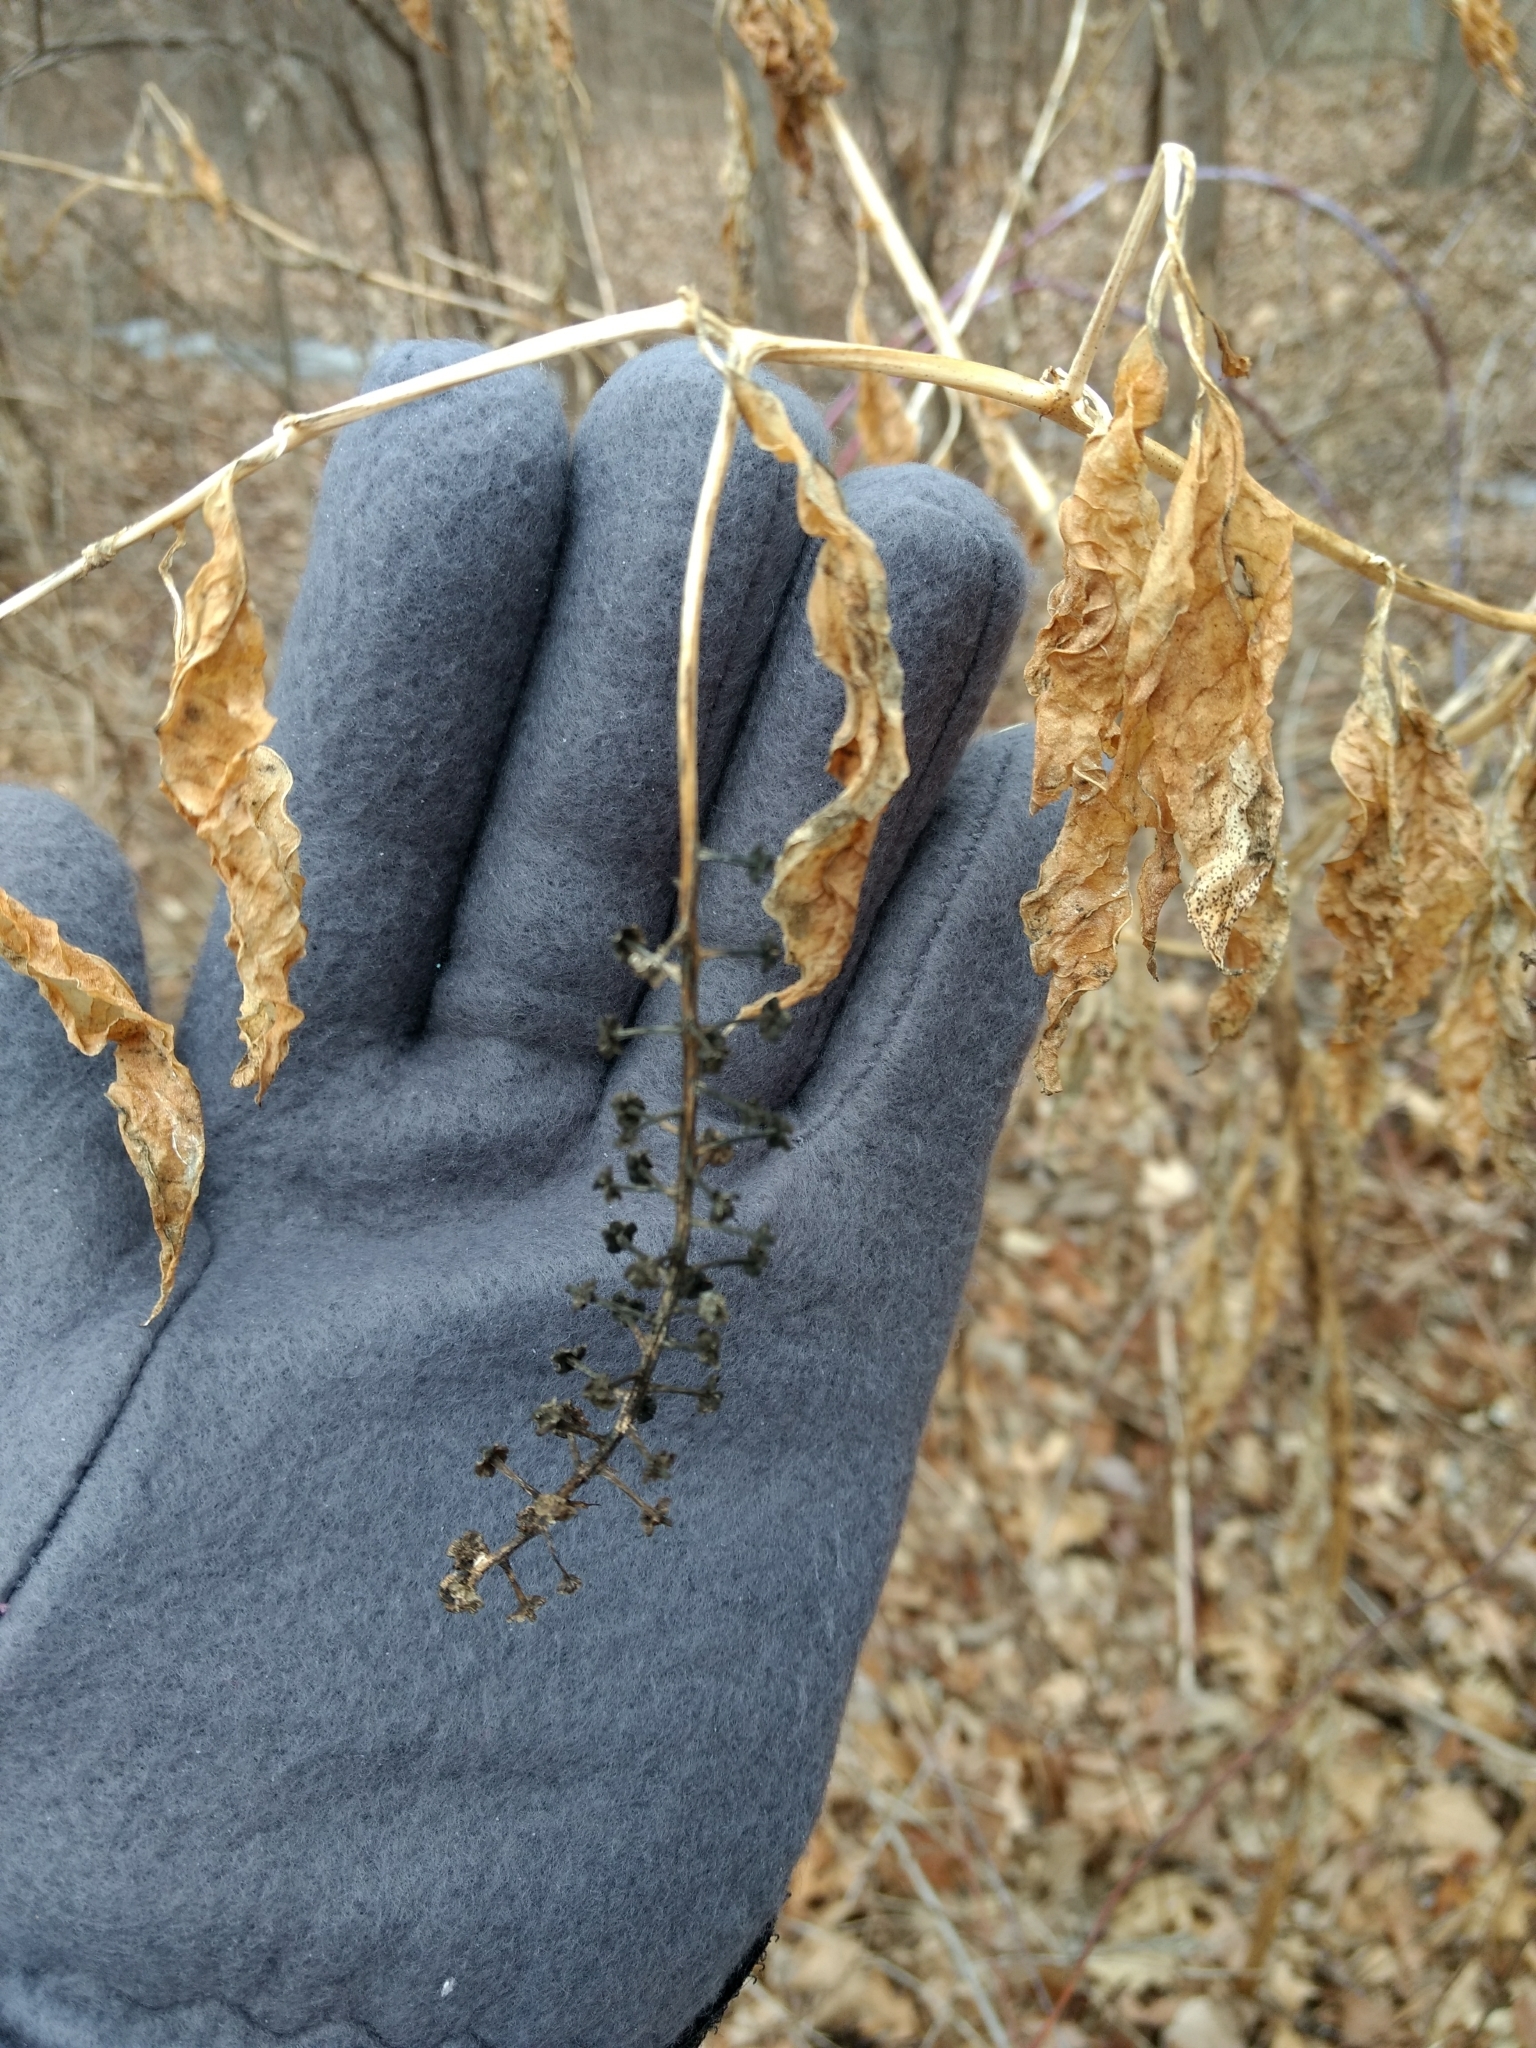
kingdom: Plantae
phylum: Tracheophyta
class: Magnoliopsida
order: Caryophyllales
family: Phytolaccaceae
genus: Phytolacca
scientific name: Phytolacca americana
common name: American pokeweed
